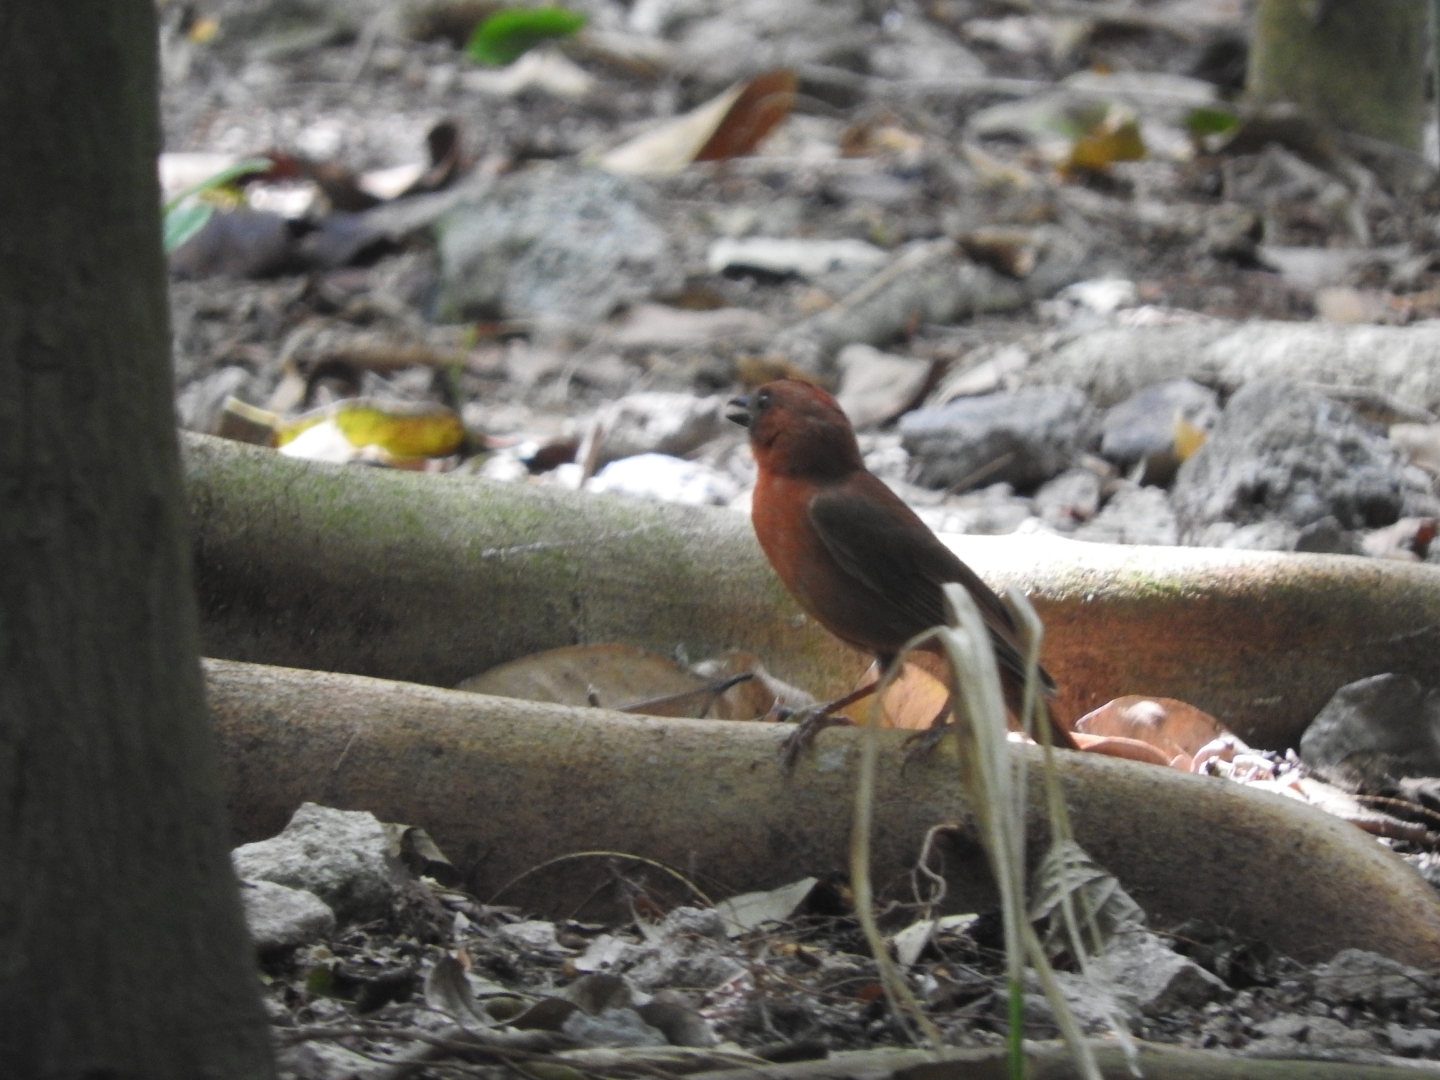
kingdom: Animalia
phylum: Chordata
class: Aves
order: Passeriformes
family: Cardinalidae
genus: Habia
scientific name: Habia fuscicauda
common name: Red-throated ant-tanager
